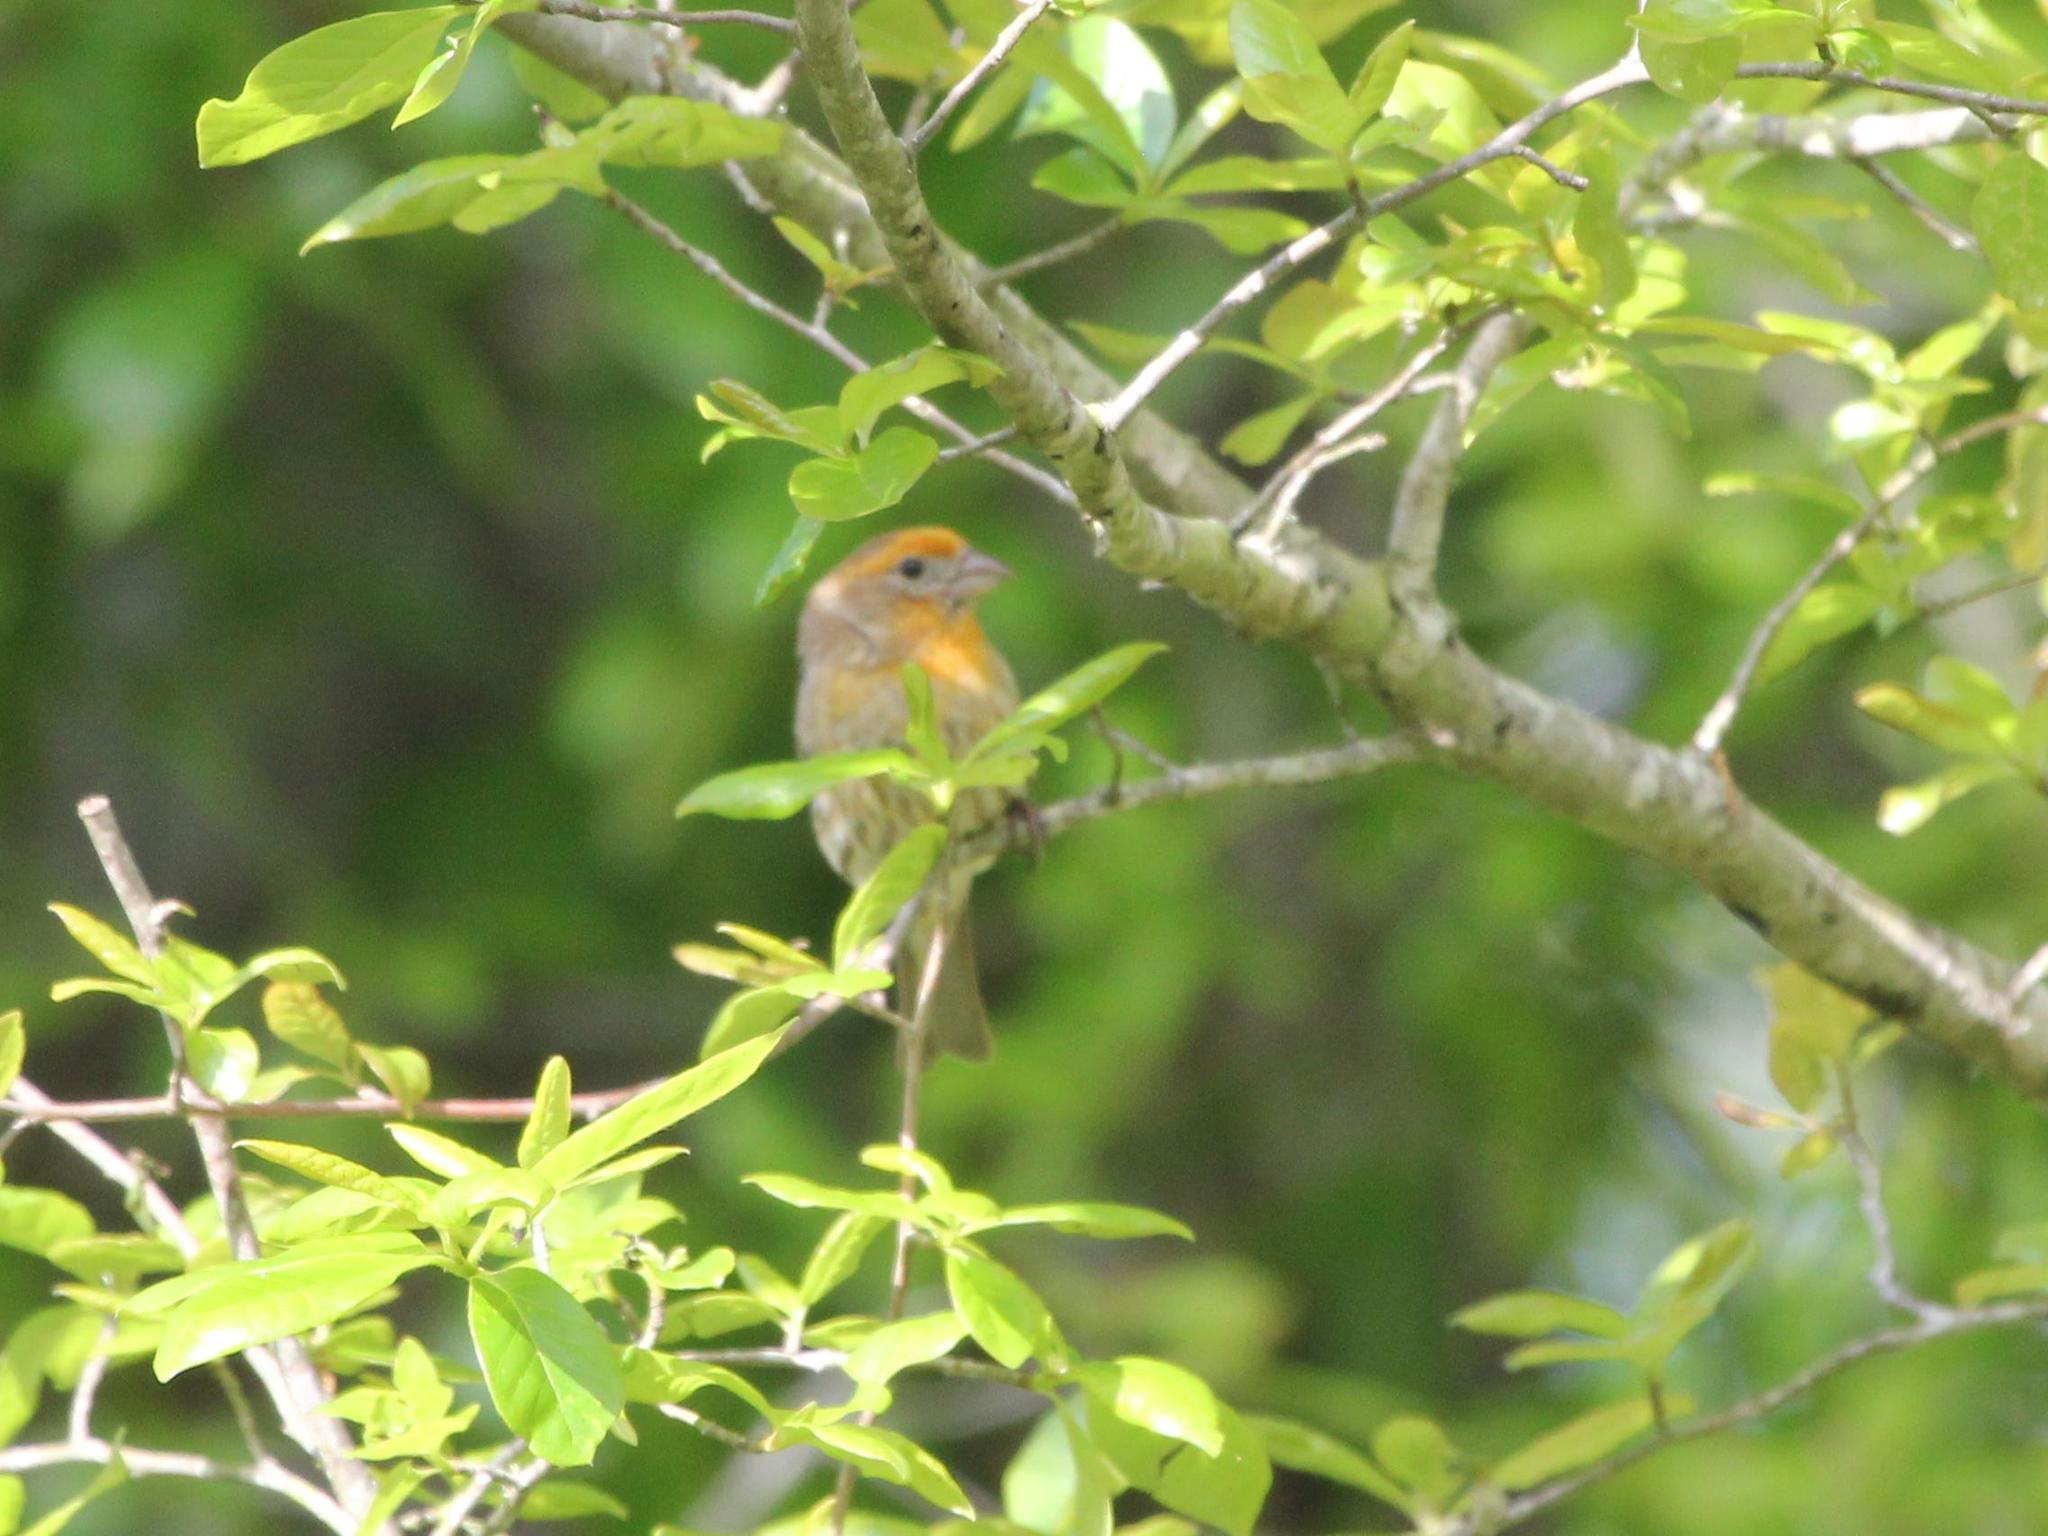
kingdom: Animalia
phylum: Chordata
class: Aves
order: Passeriformes
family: Fringillidae
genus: Haemorhous
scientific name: Haemorhous mexicanus
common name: House finch
